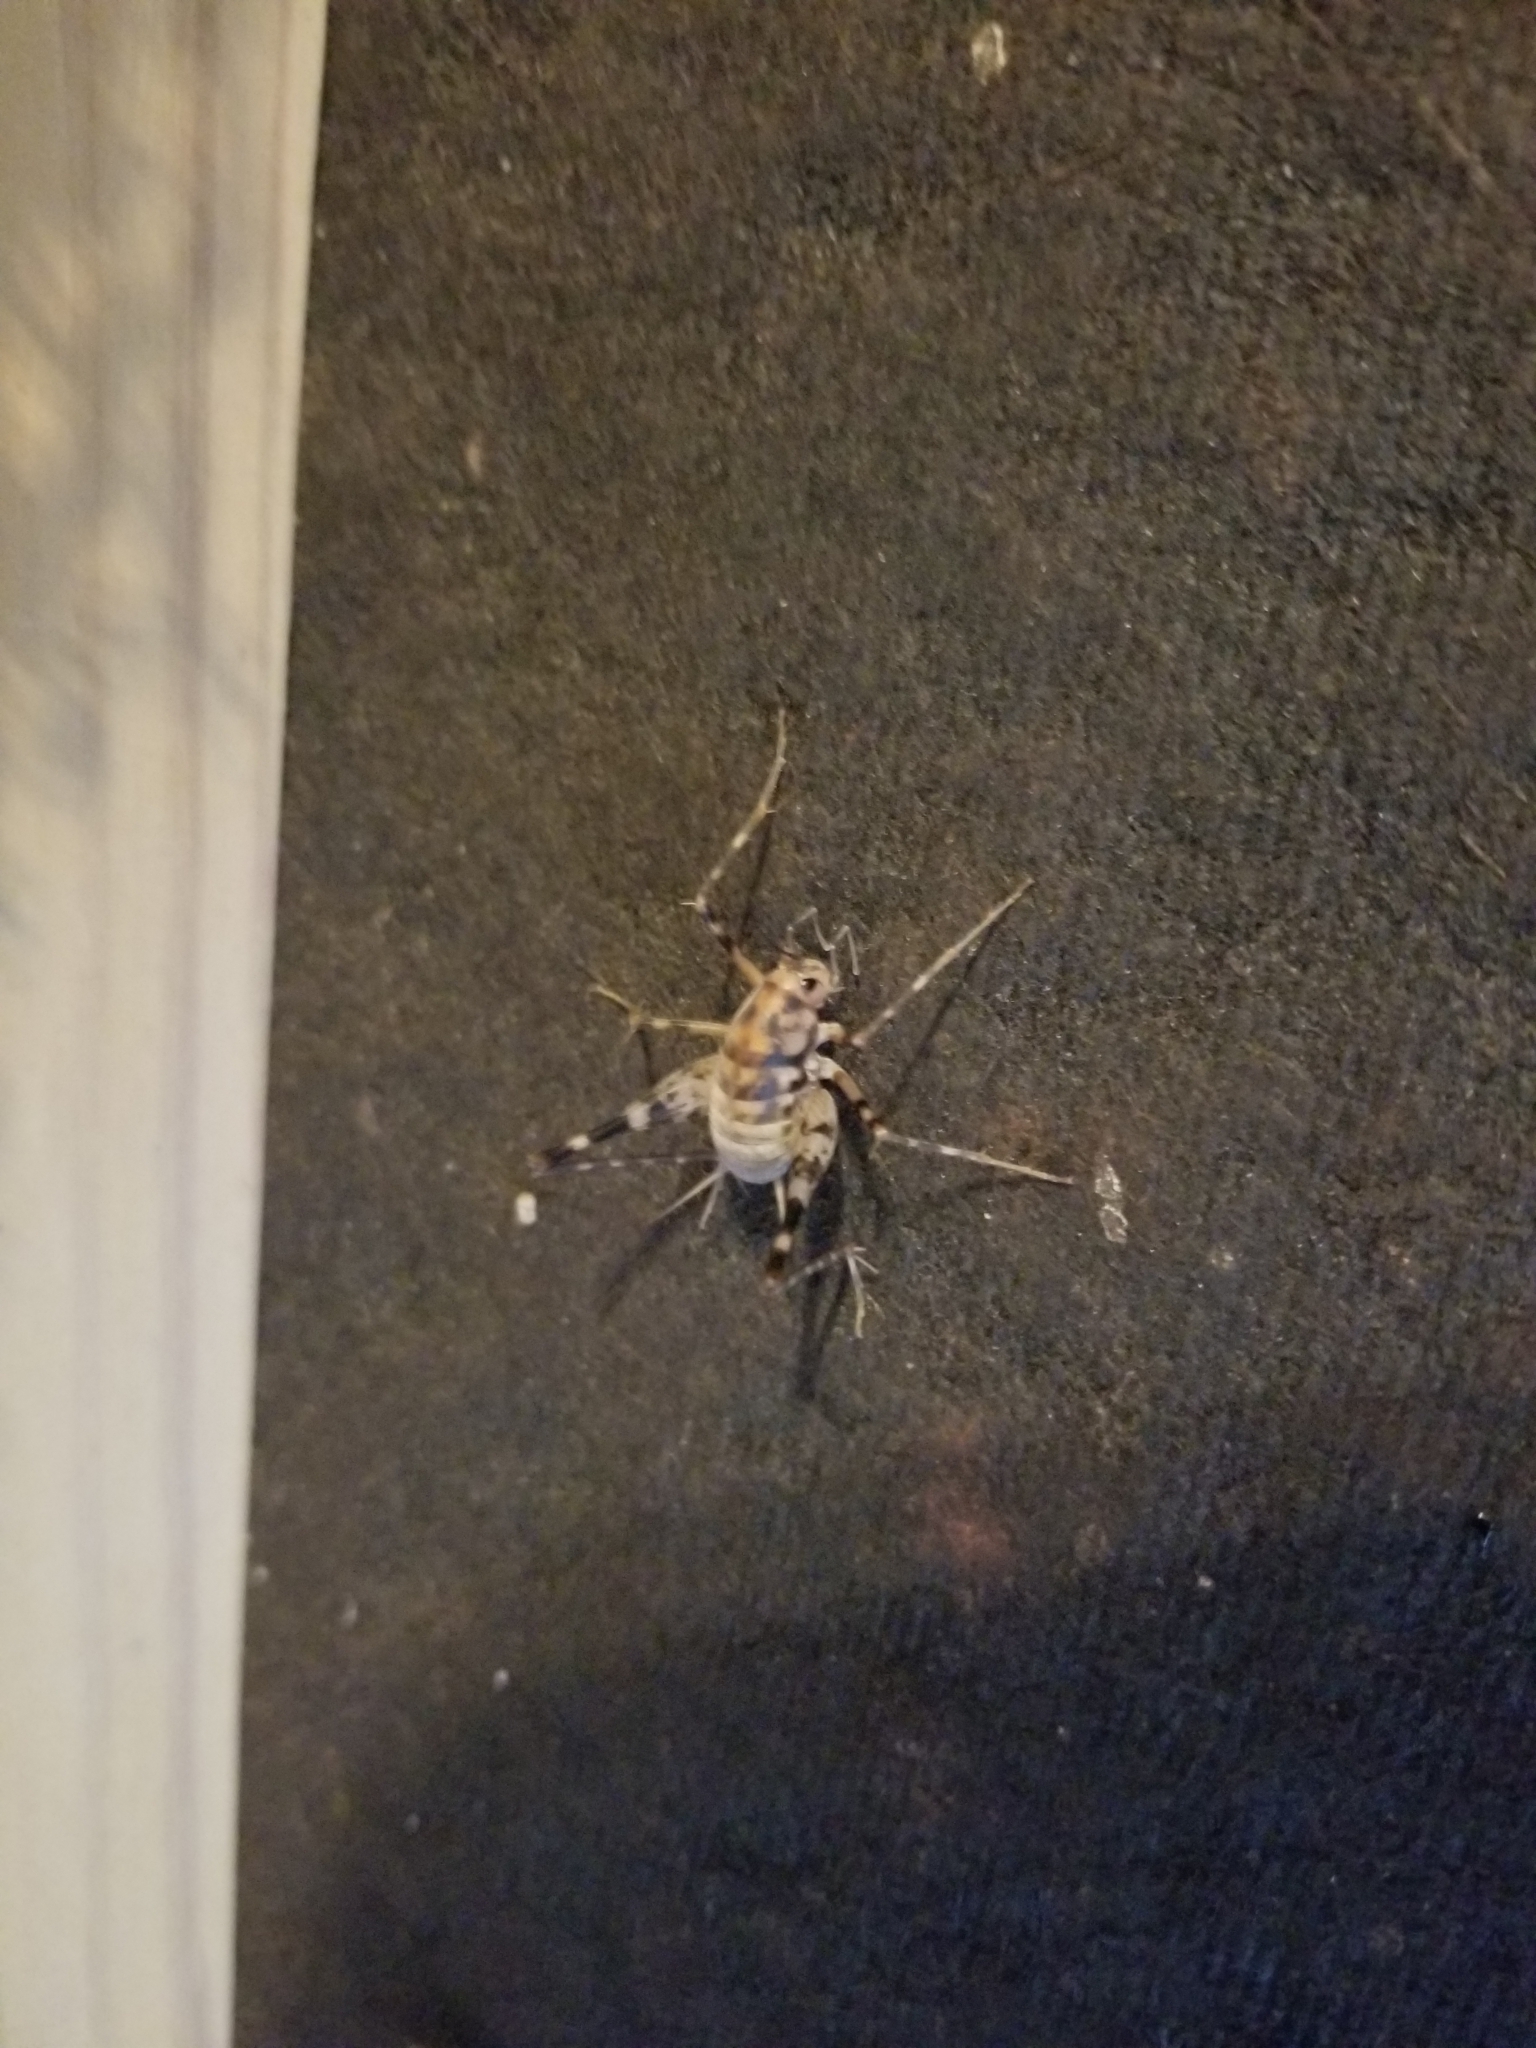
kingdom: Animalia
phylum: Arthropoda
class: Insecta
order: Orthoptera
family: Rhaphidophoridae
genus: Tachycines
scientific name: Tachycines asynamorus
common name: Greenhouse camel cricket
